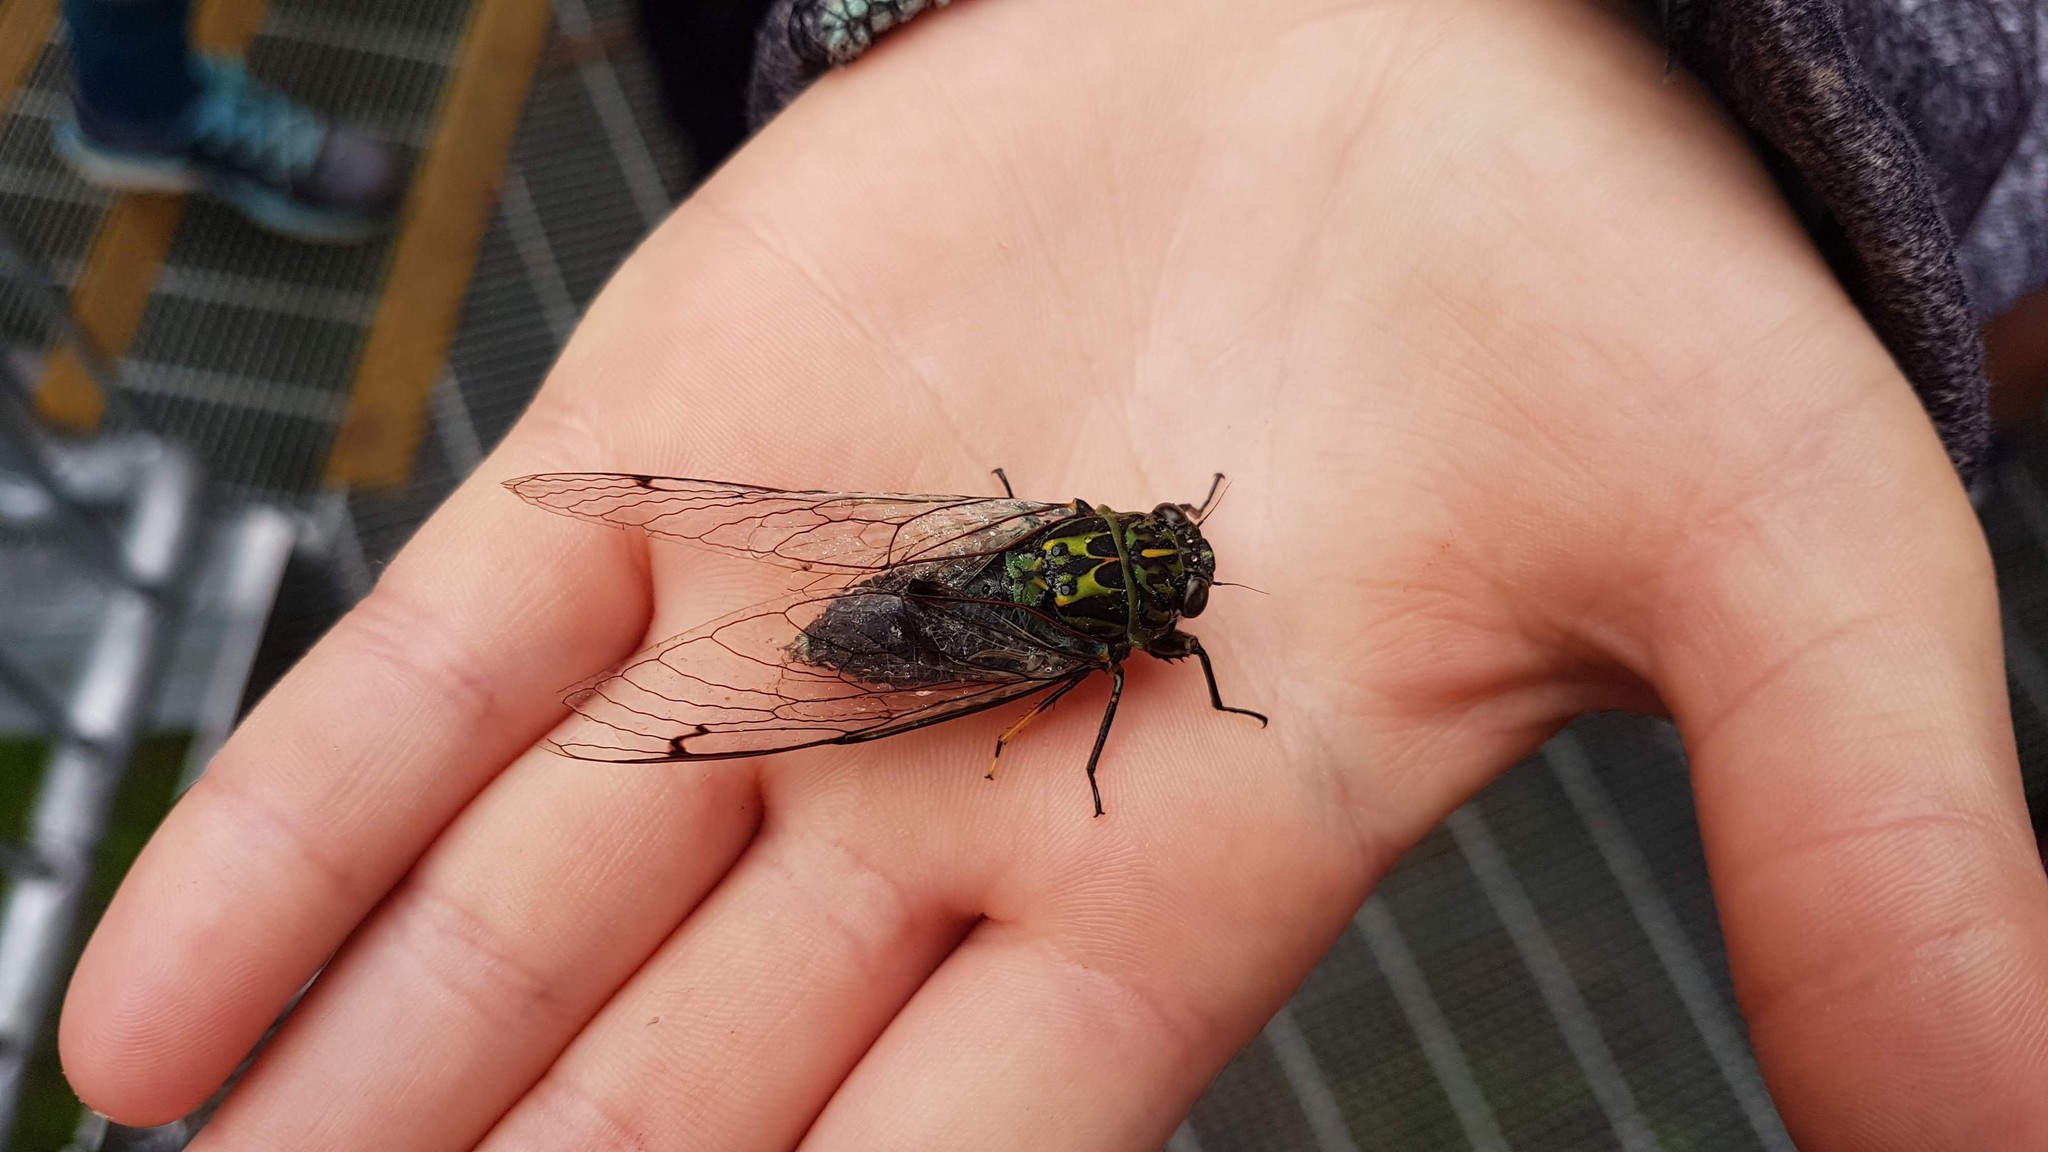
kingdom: Animalia
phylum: Arthropoda
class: Insecta
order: Hemiptera
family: Cicadidae
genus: Amphipsalta
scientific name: Amphipsalta zelandica
